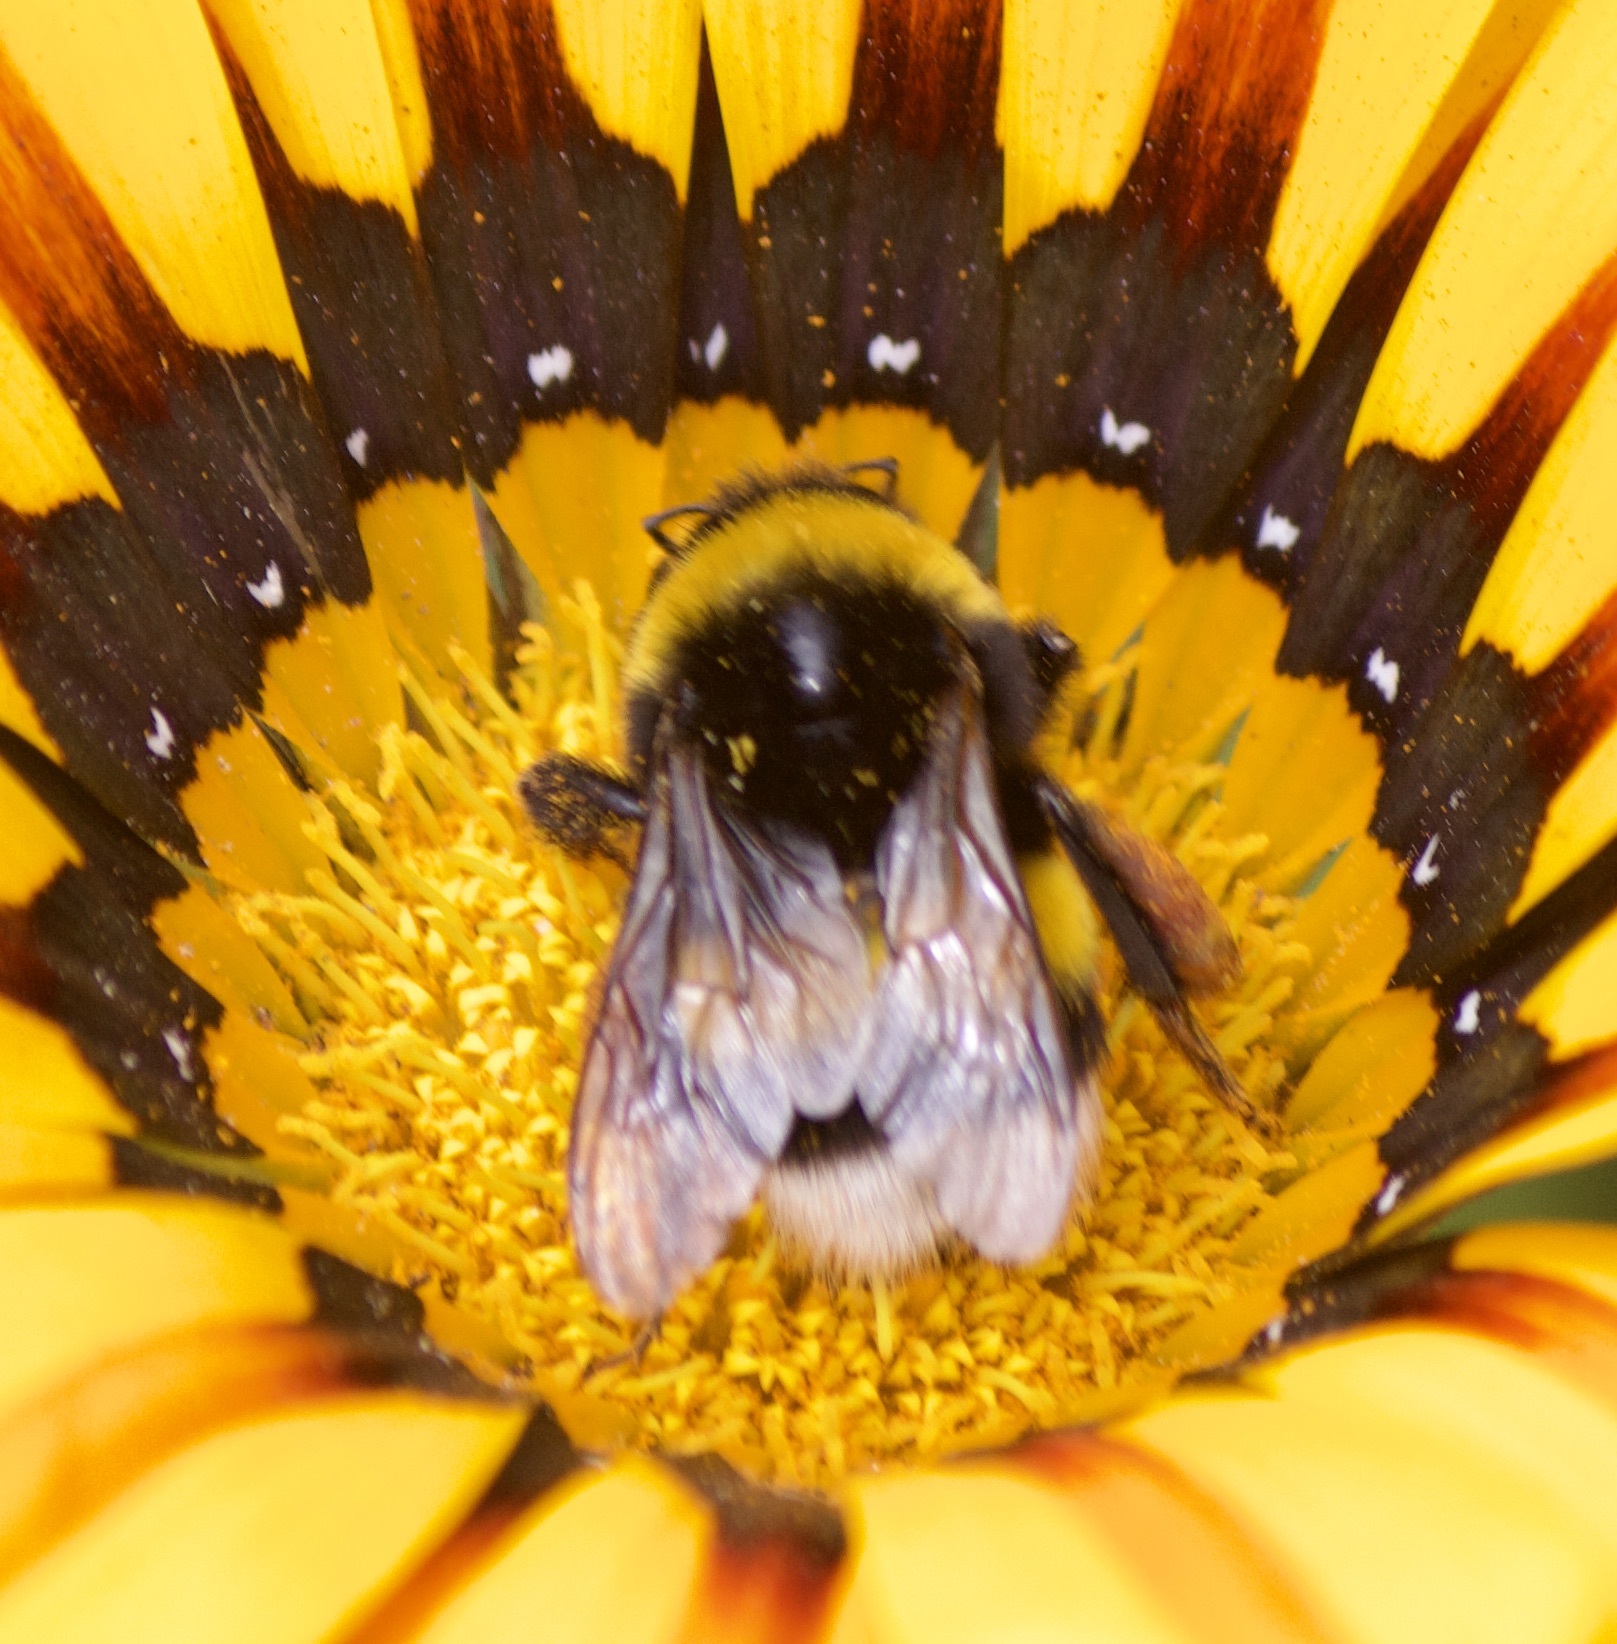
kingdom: Animalia
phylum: Arthropoda
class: Insecta
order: Hymenoptera
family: Apidae
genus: Bombus
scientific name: Bombus terrestris
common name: Buff-tailed bumblebee
